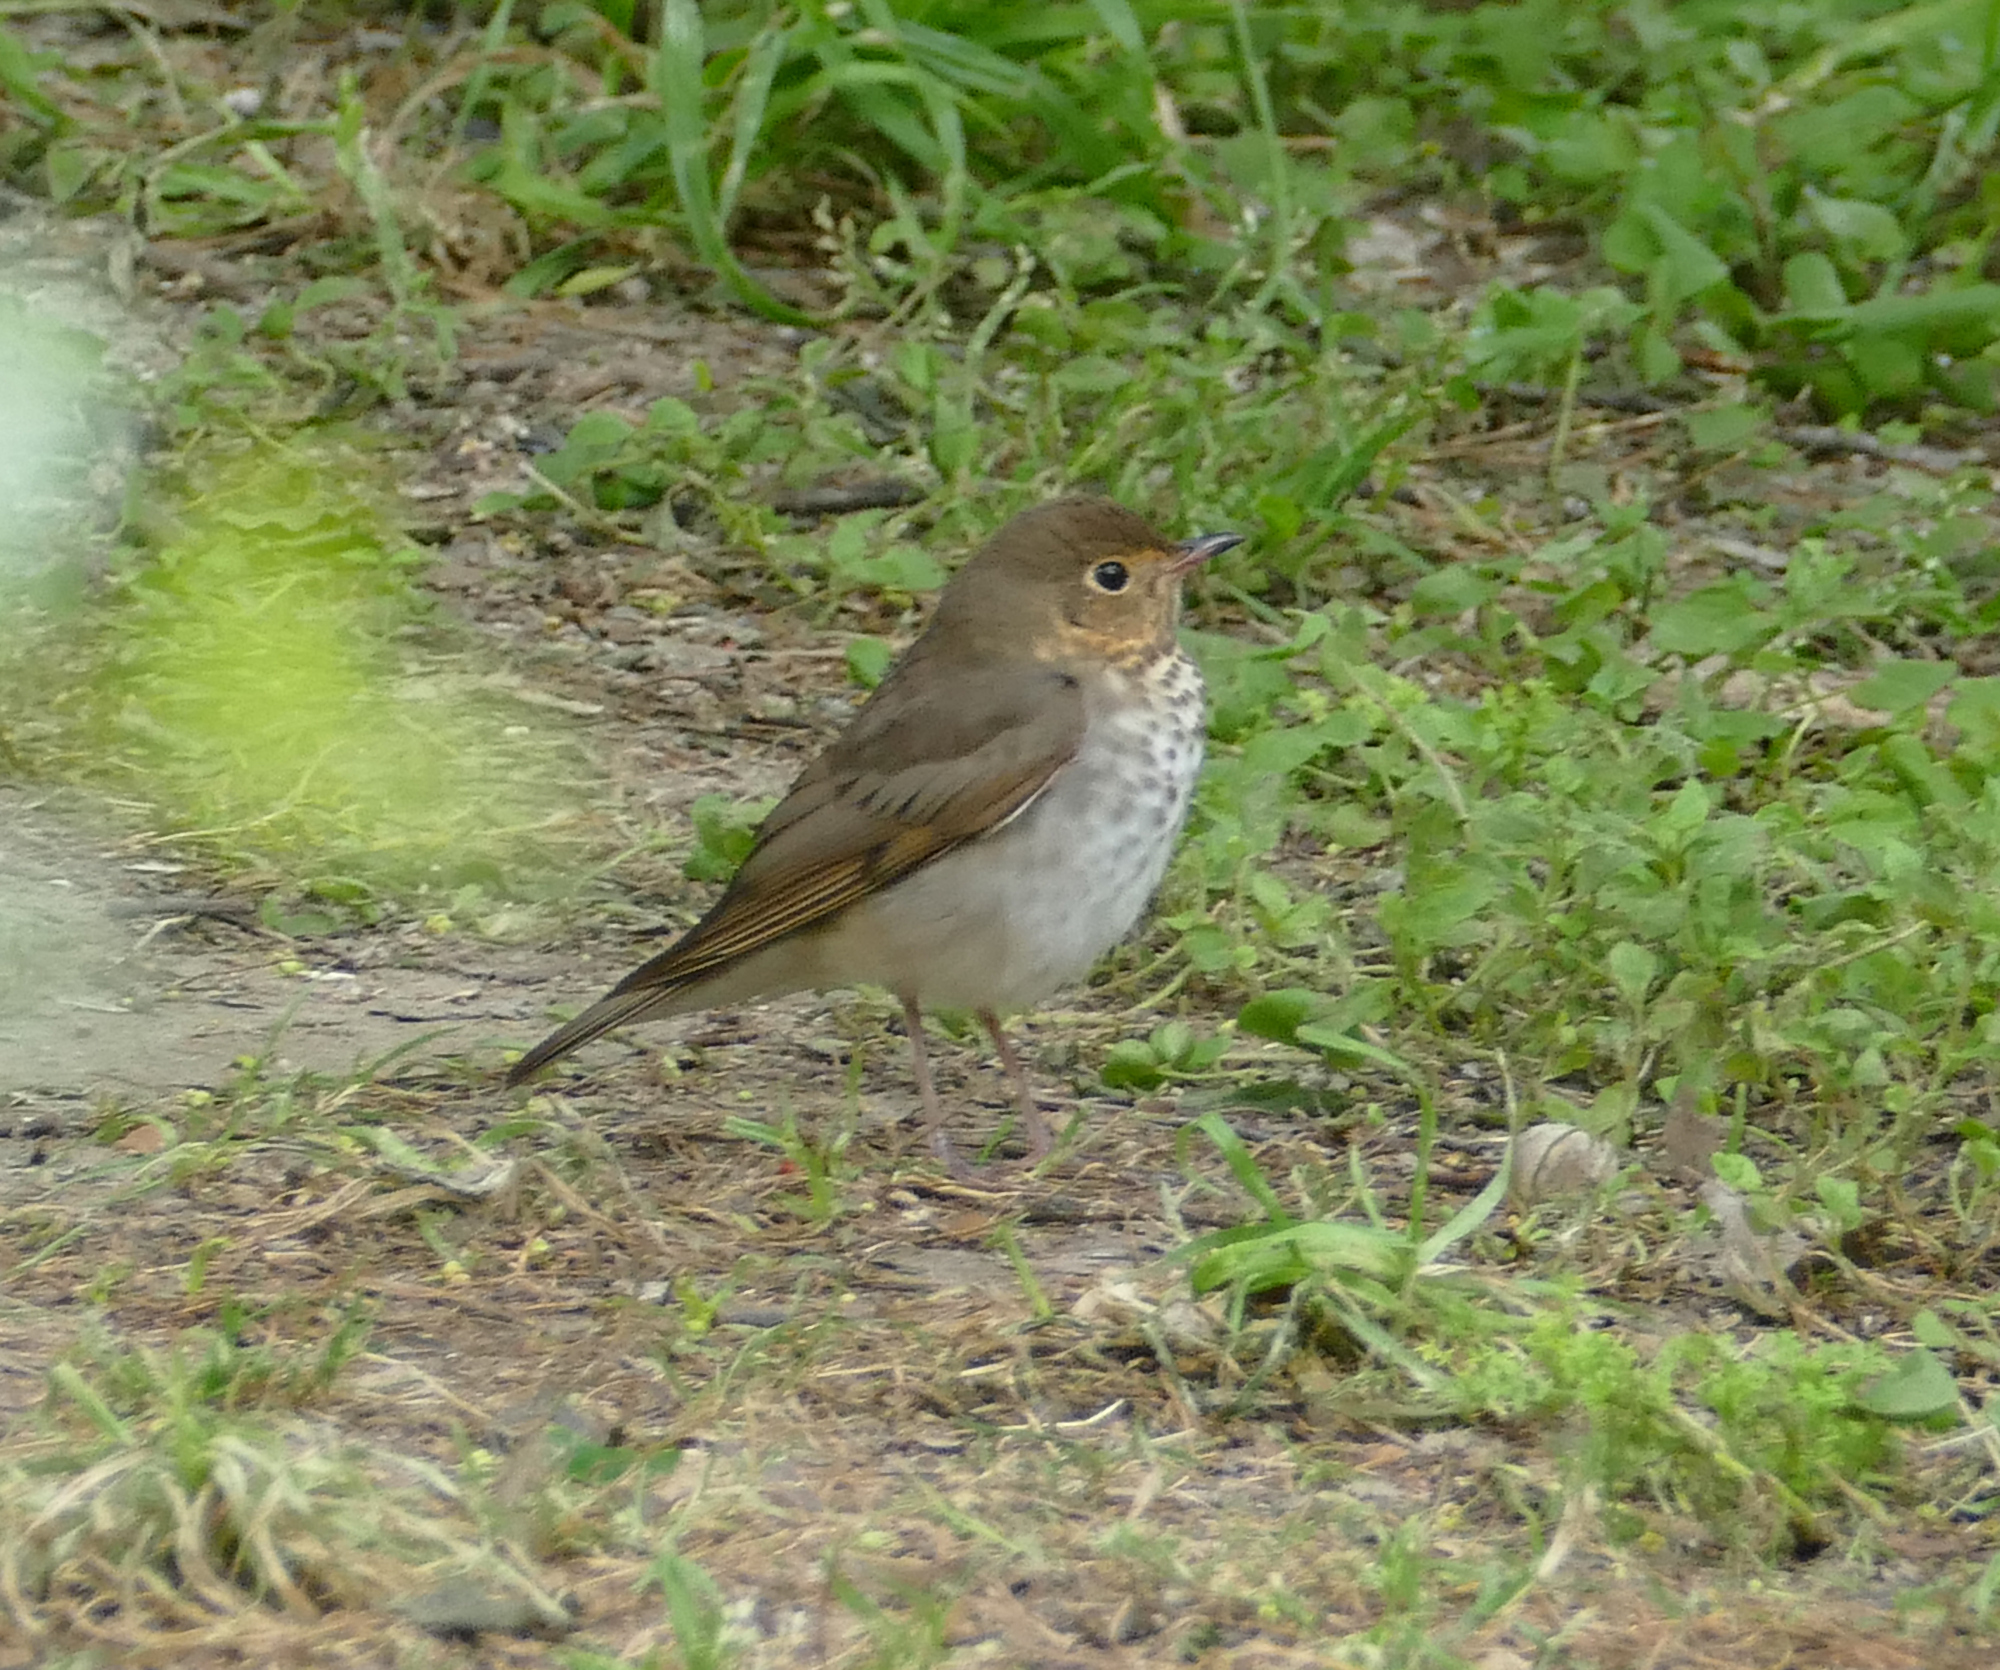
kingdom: Animalia
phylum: Chordata
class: Aves
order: Passeriformes
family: Turdidae
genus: Catharus
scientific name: Catharus ustulatus
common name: Swainson's thrush
